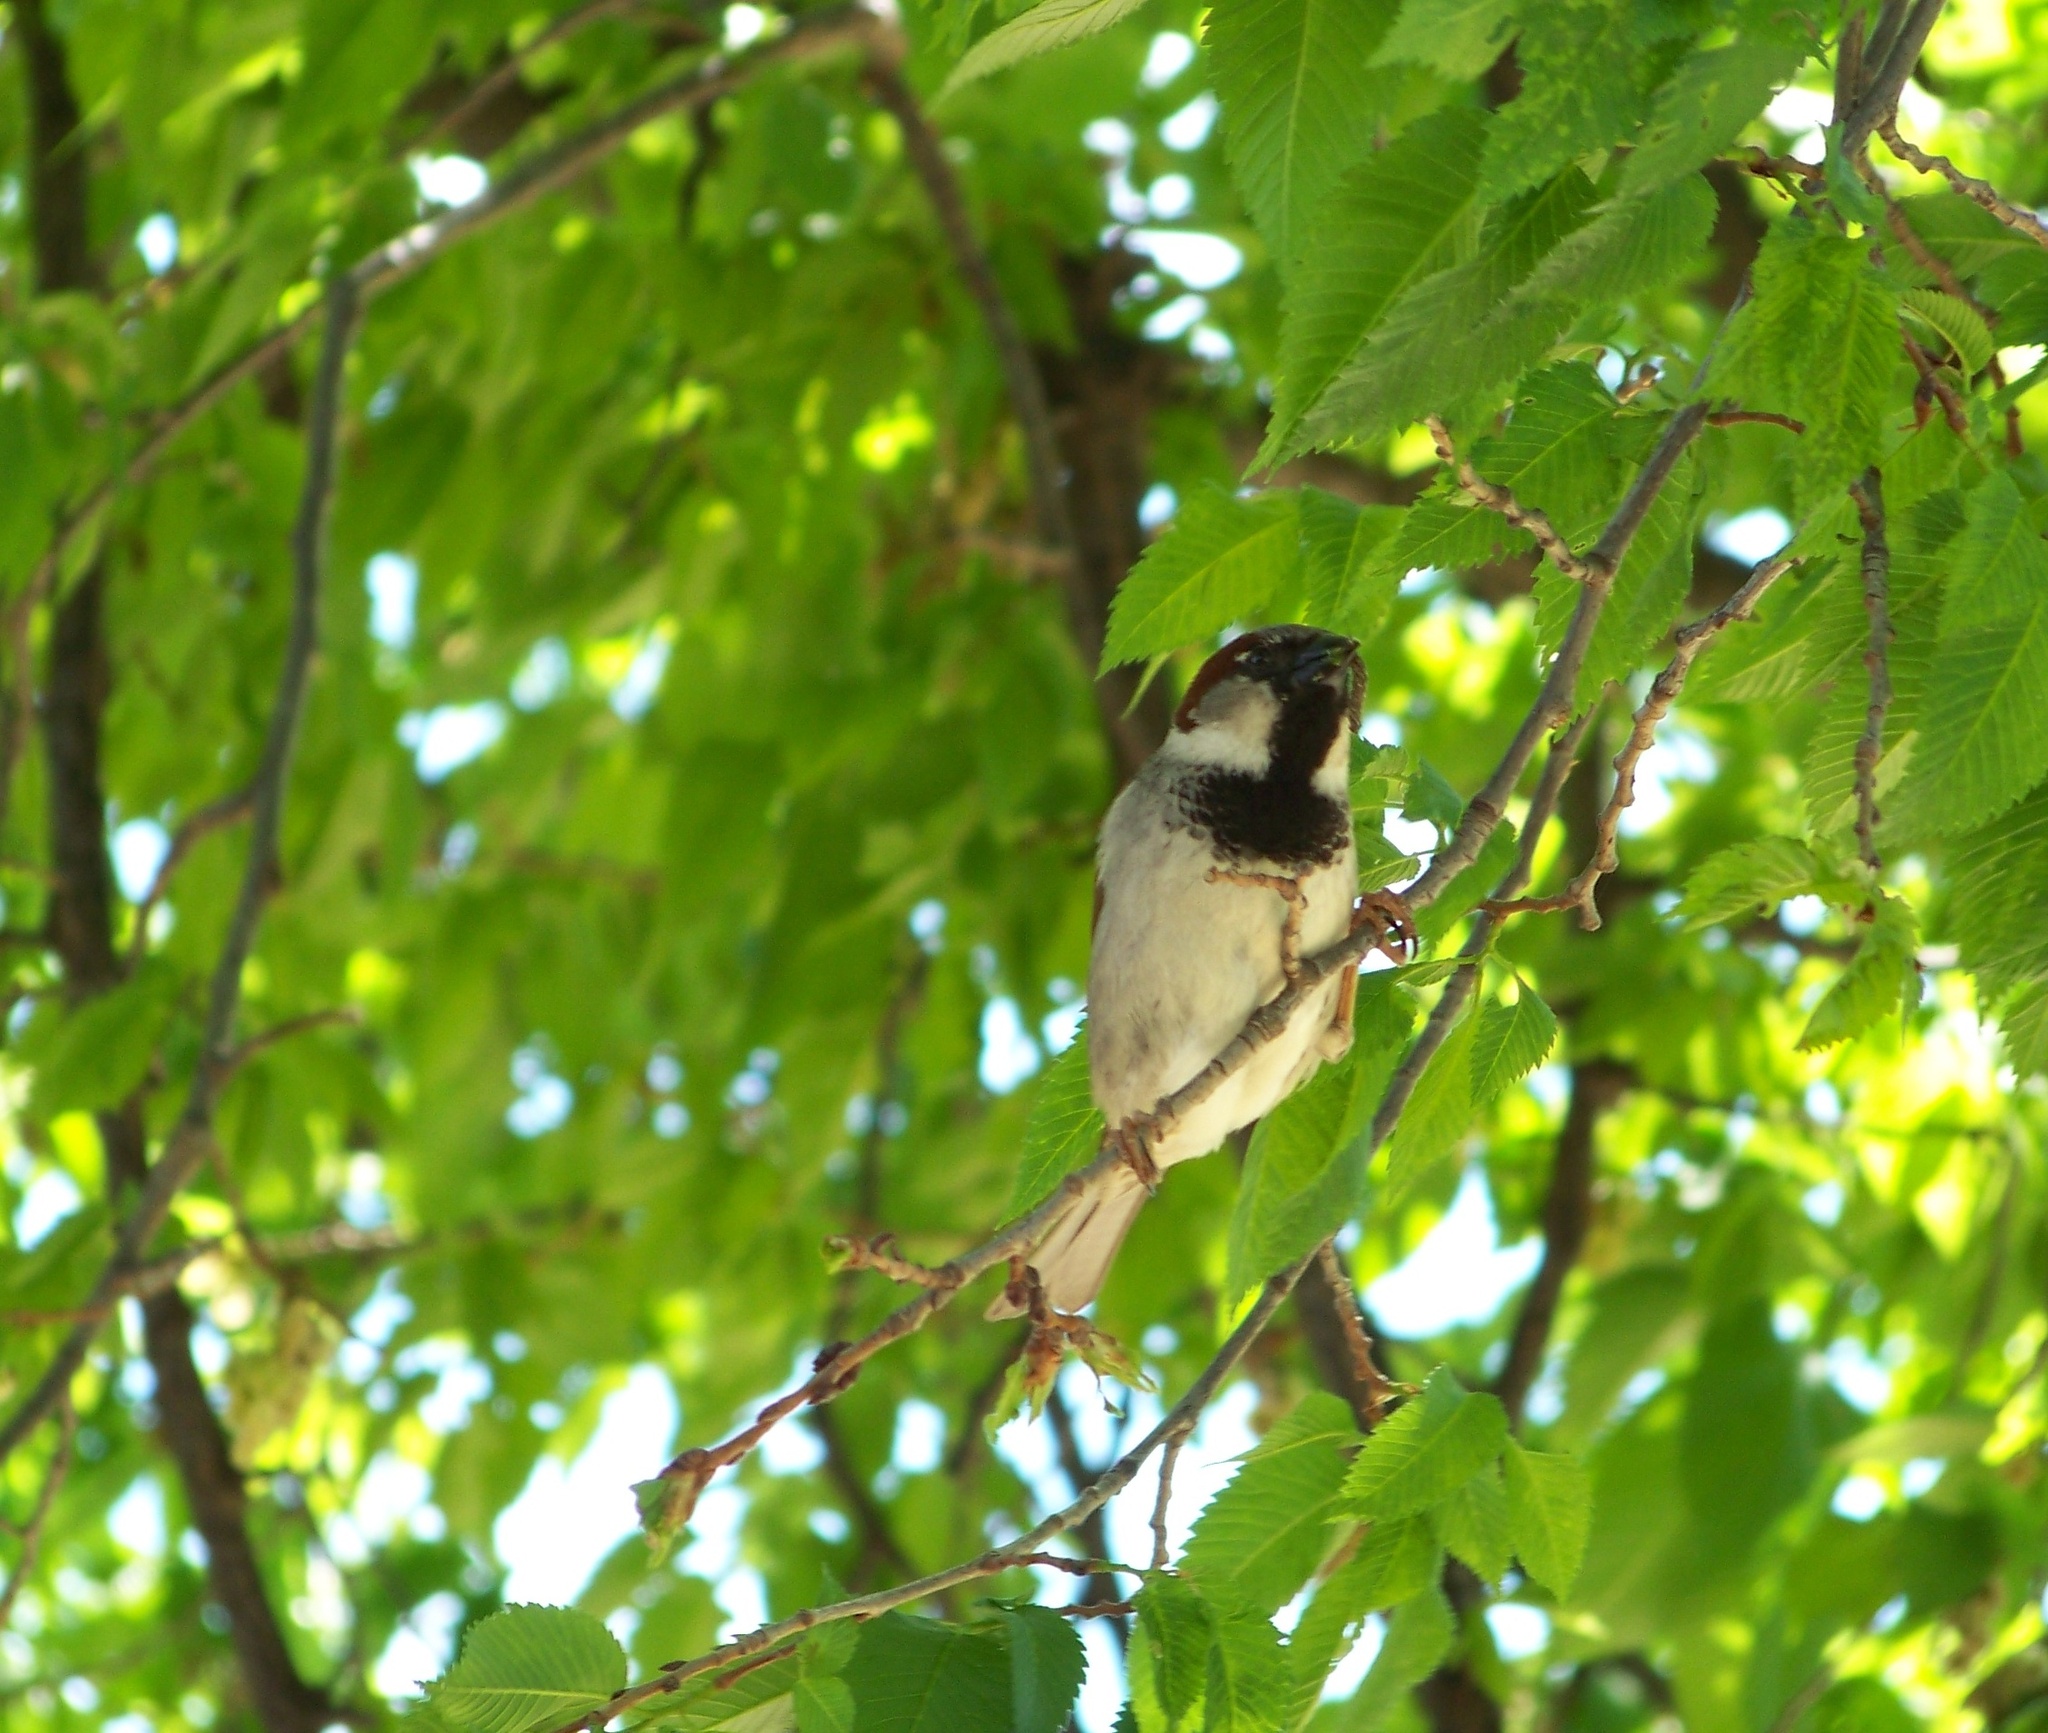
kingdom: Animalia
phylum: Chordata
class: Aves
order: Passeriformes
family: Passeridae
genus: Passer
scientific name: Passer domesticus
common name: House sparrow
